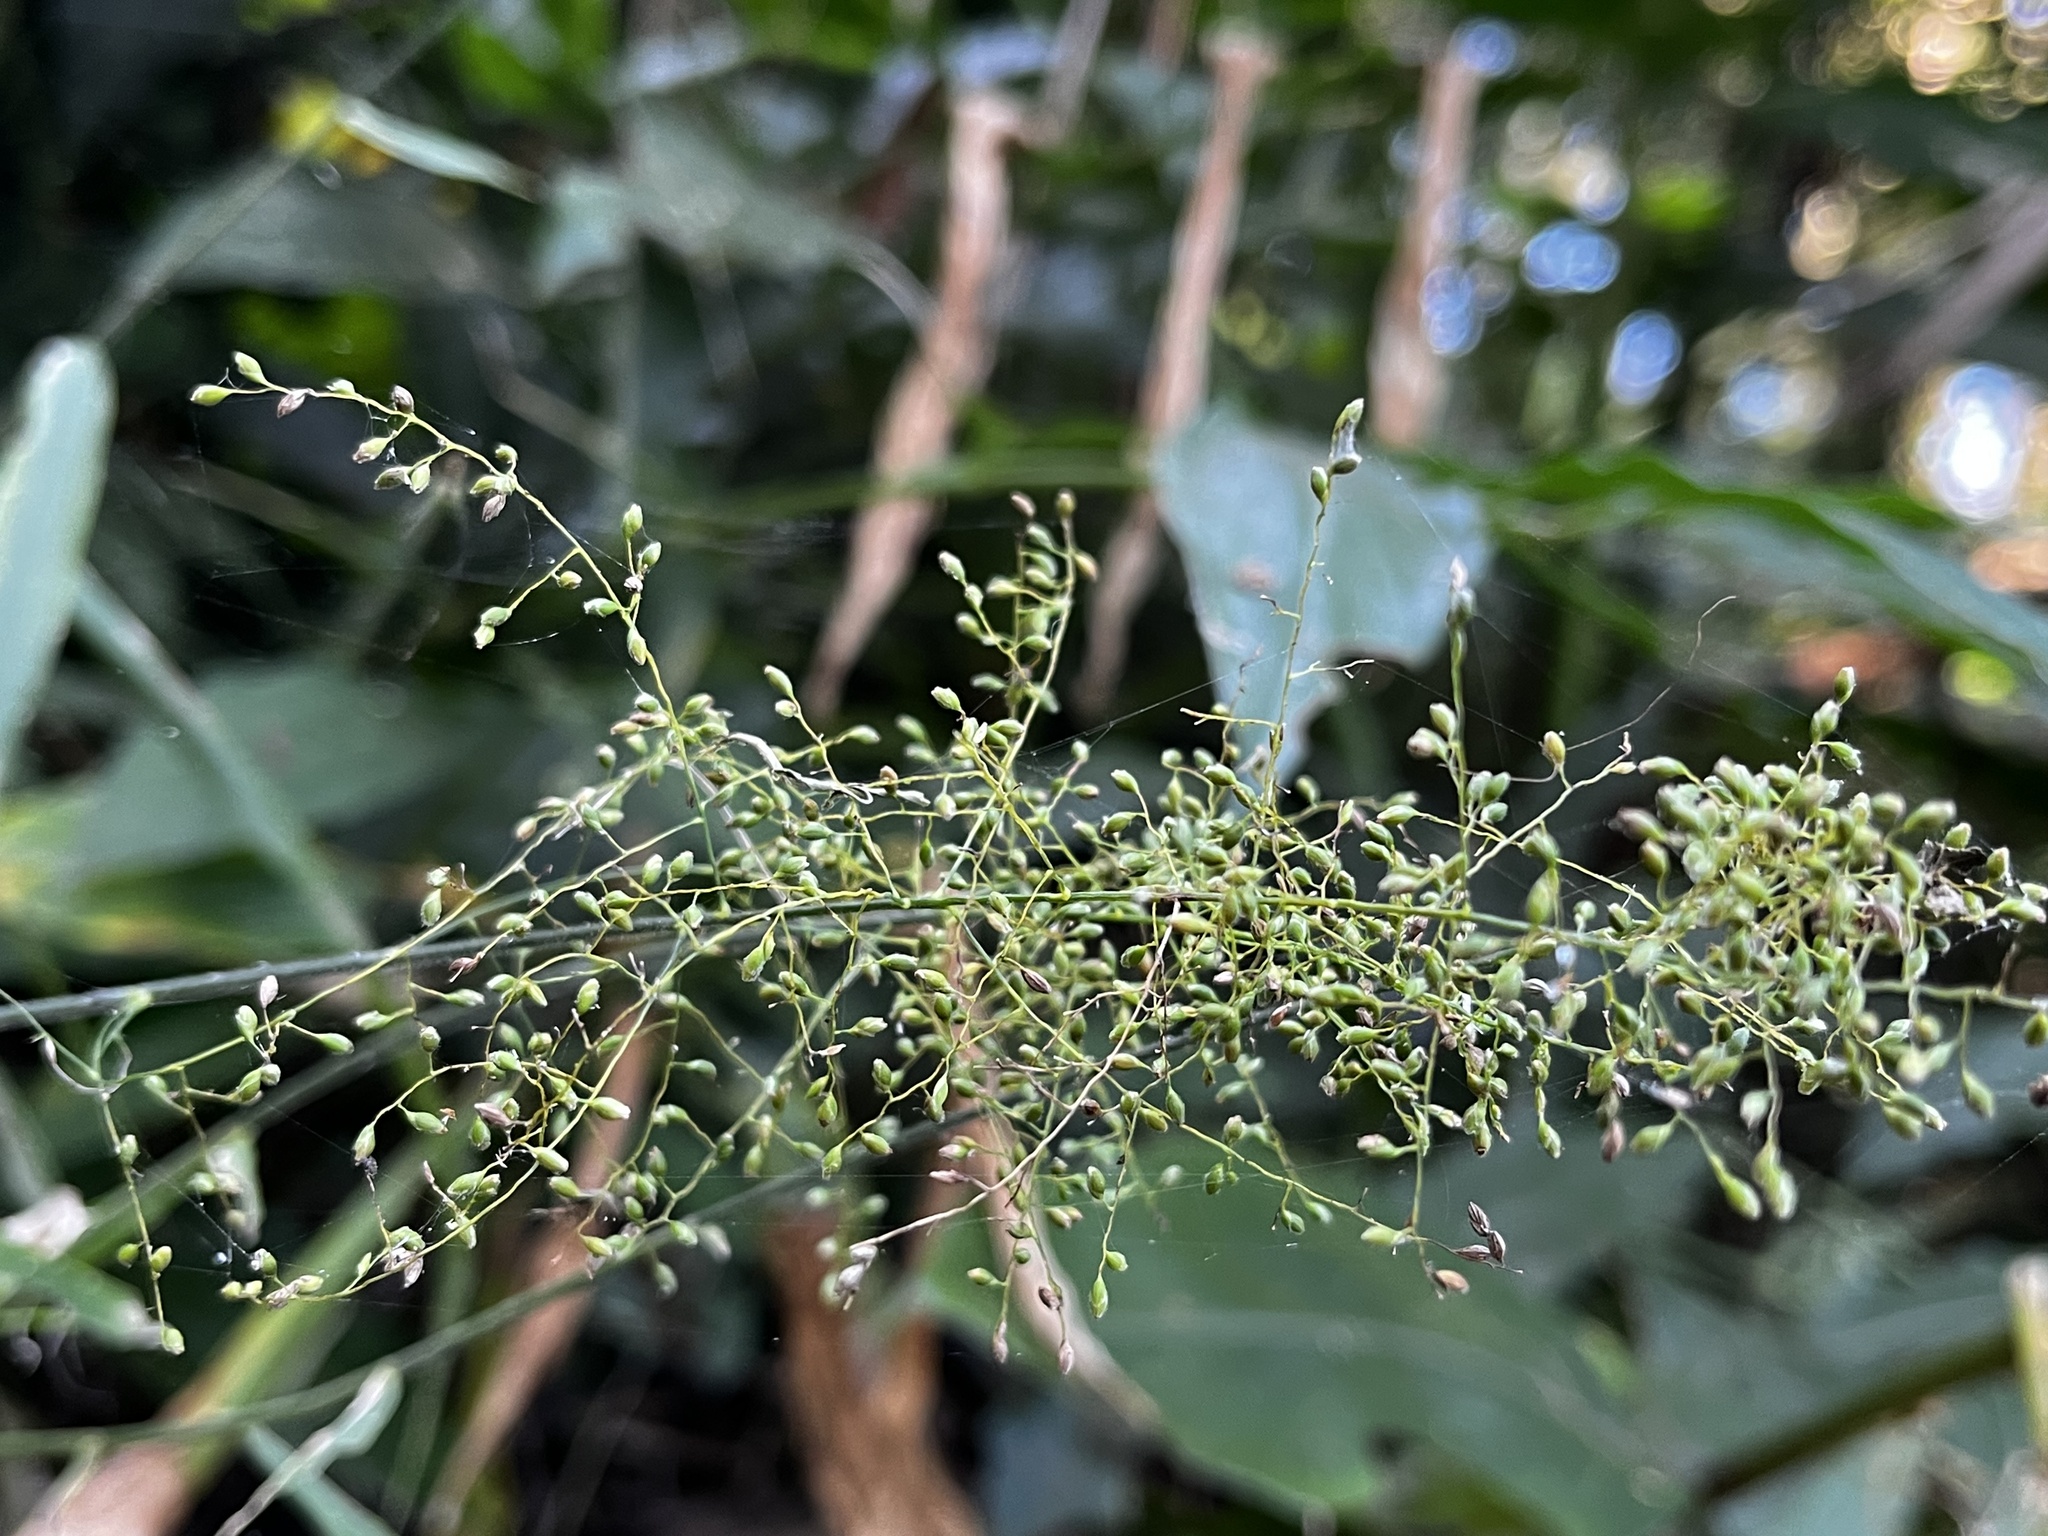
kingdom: Plantae
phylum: Tracheophyta
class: Liliopsida
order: Poales
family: Poaceae
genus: Panicum
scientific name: Panicum sarmentosum
